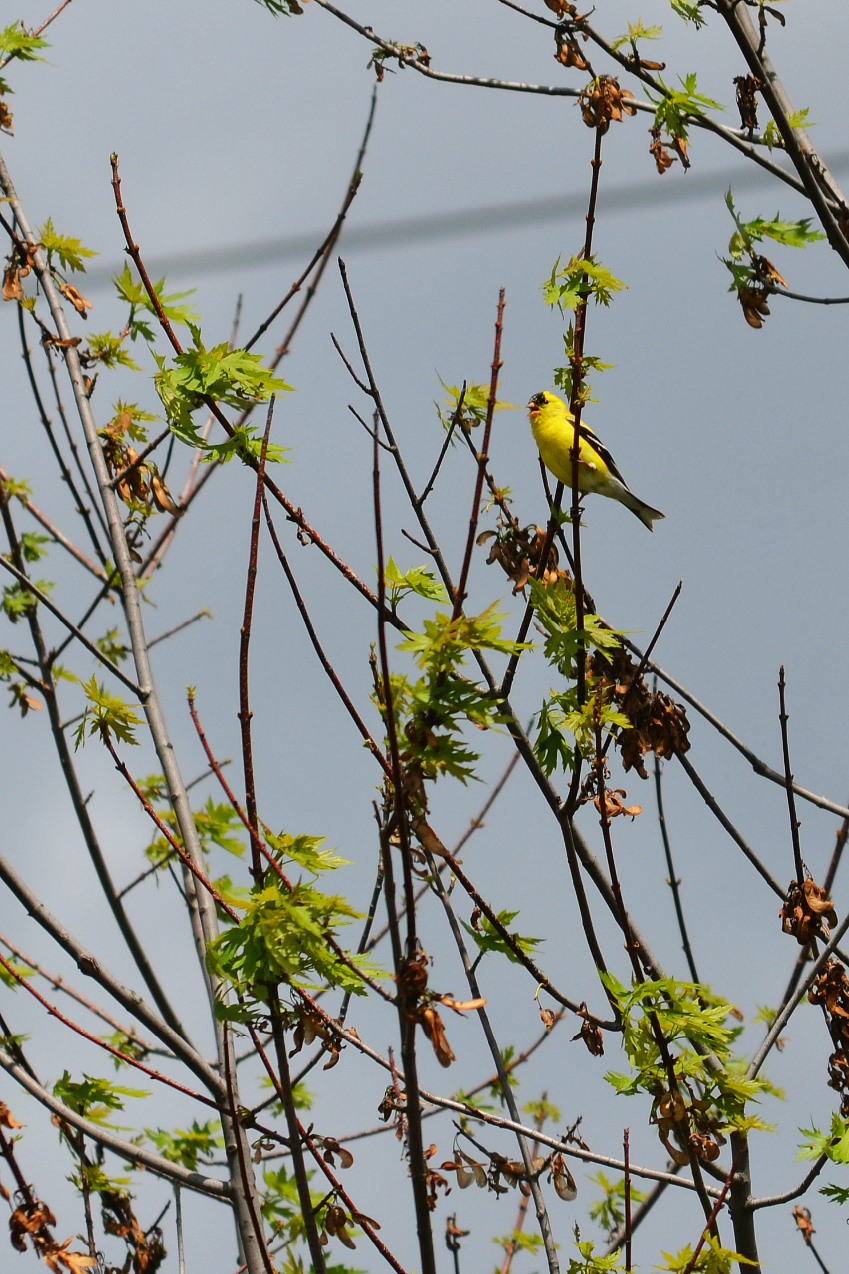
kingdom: Animalia
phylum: Chordata
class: Aves
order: Passeriformes
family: Fringillidae
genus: Spinus
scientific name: Spinus tristis
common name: American goldfinch
